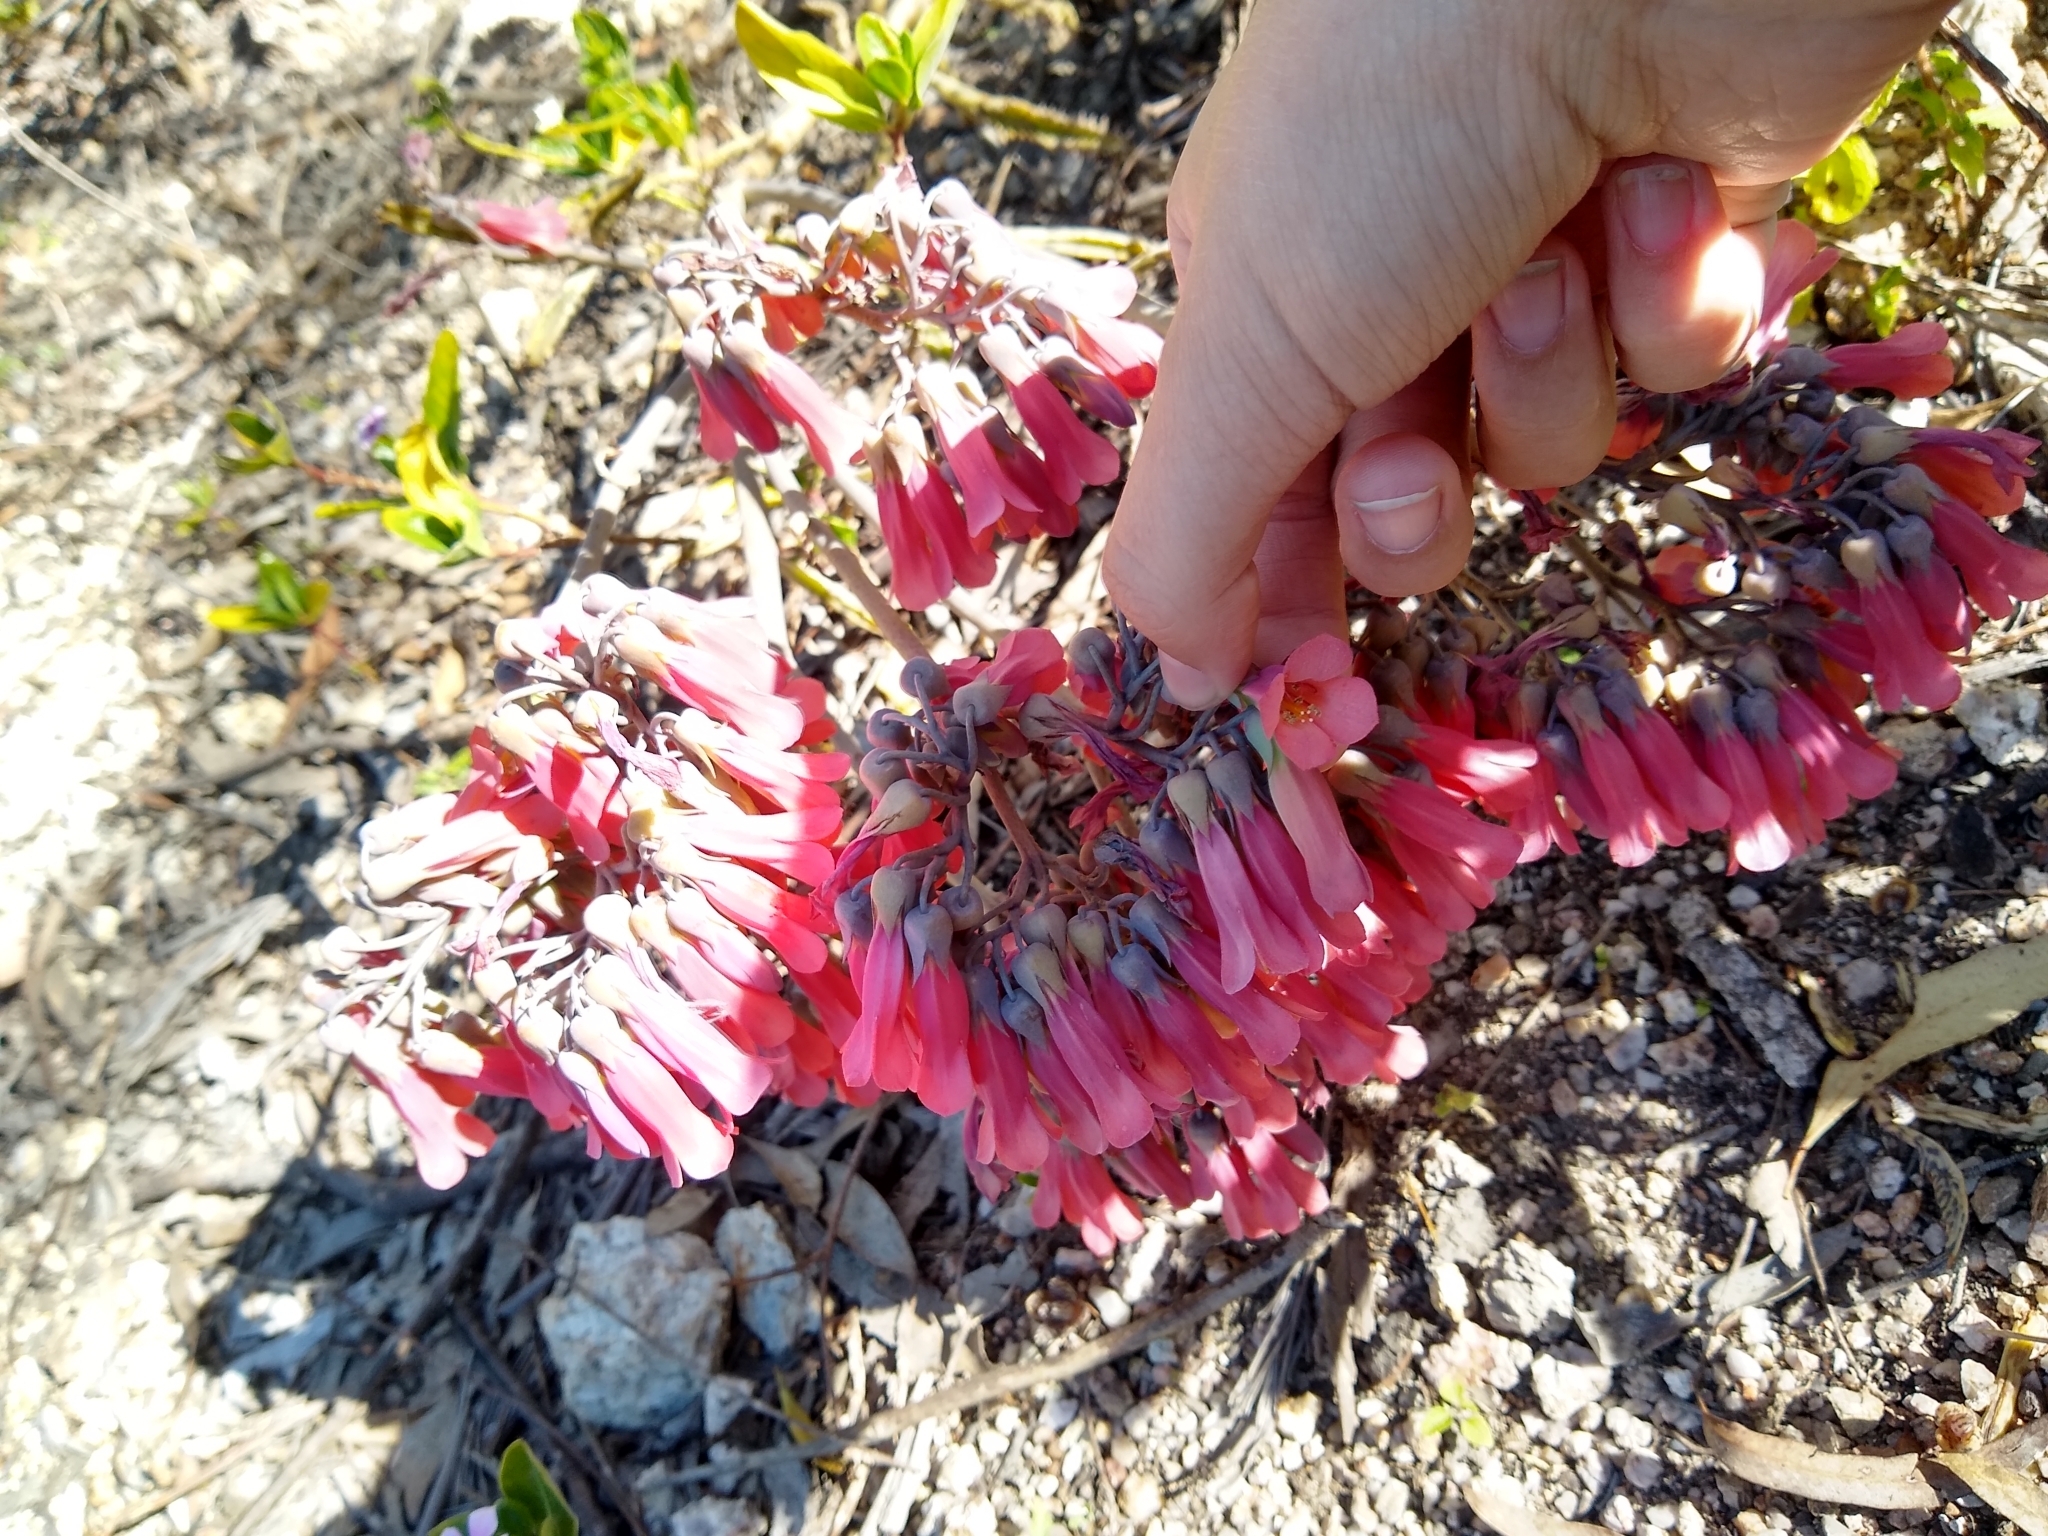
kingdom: Plantae
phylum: Tracheophyta
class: Magnoliopsida
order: Saxifragales
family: Crassulaceae
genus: Kalanchoe
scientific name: Kalanchoe delagoensis
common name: Chandelier plant
